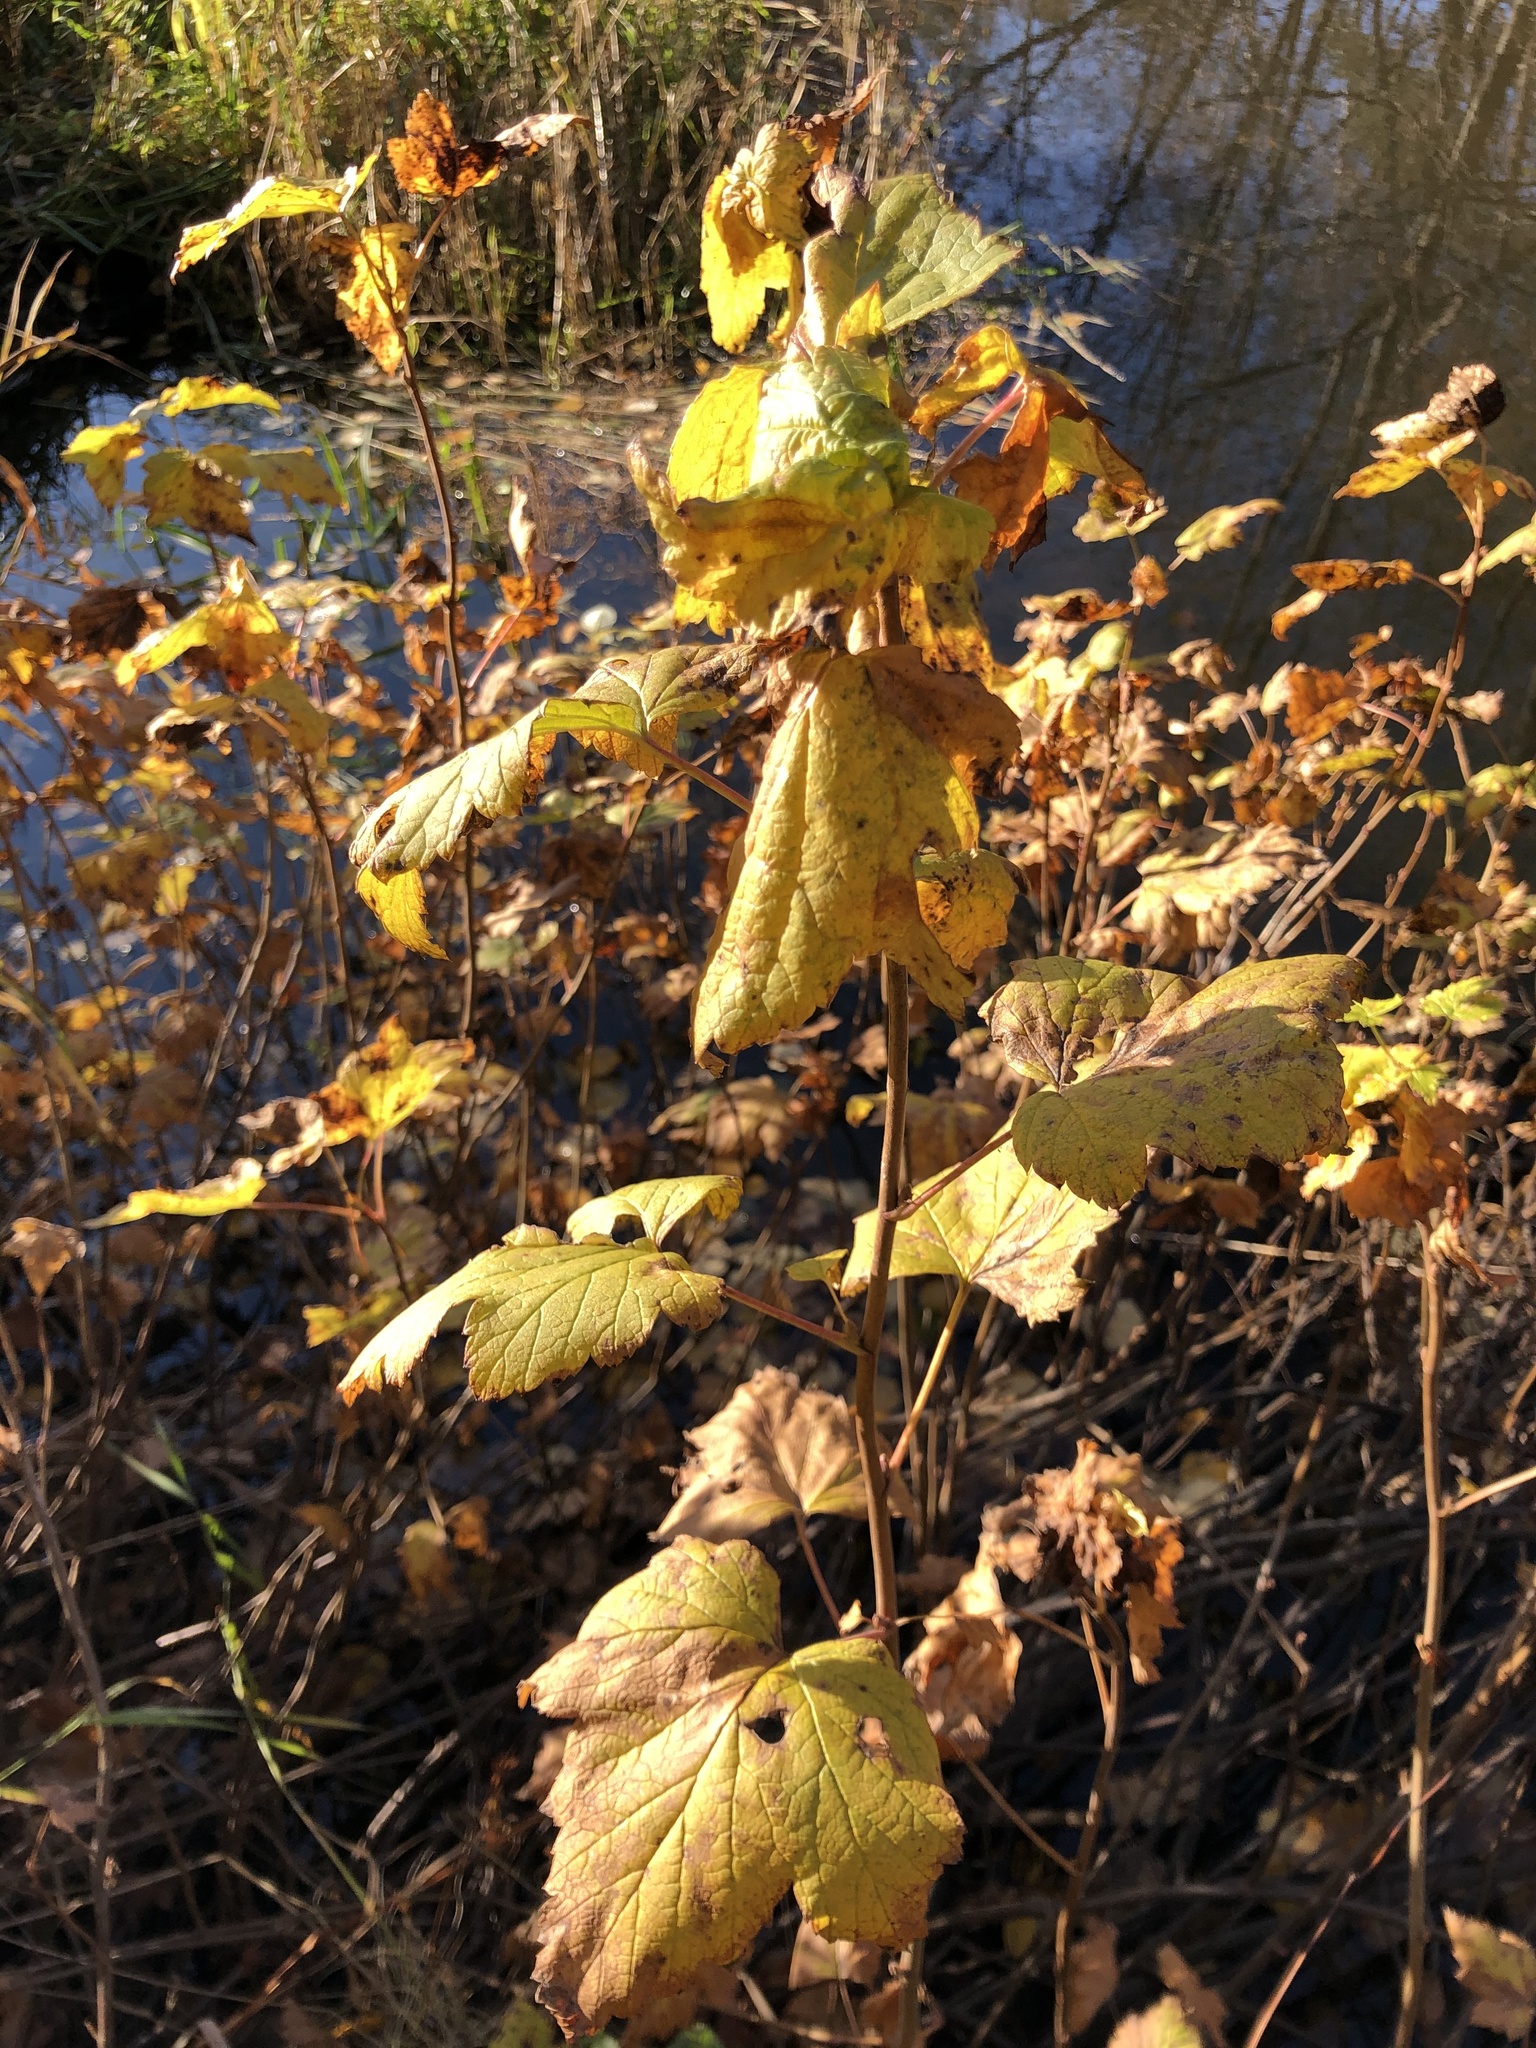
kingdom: Plantae
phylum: Tracheophyta
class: Magnoliopsida
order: Saxifragales
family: Grossulariaceae
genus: Ribes
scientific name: Ribes nigrum
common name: Black currant
